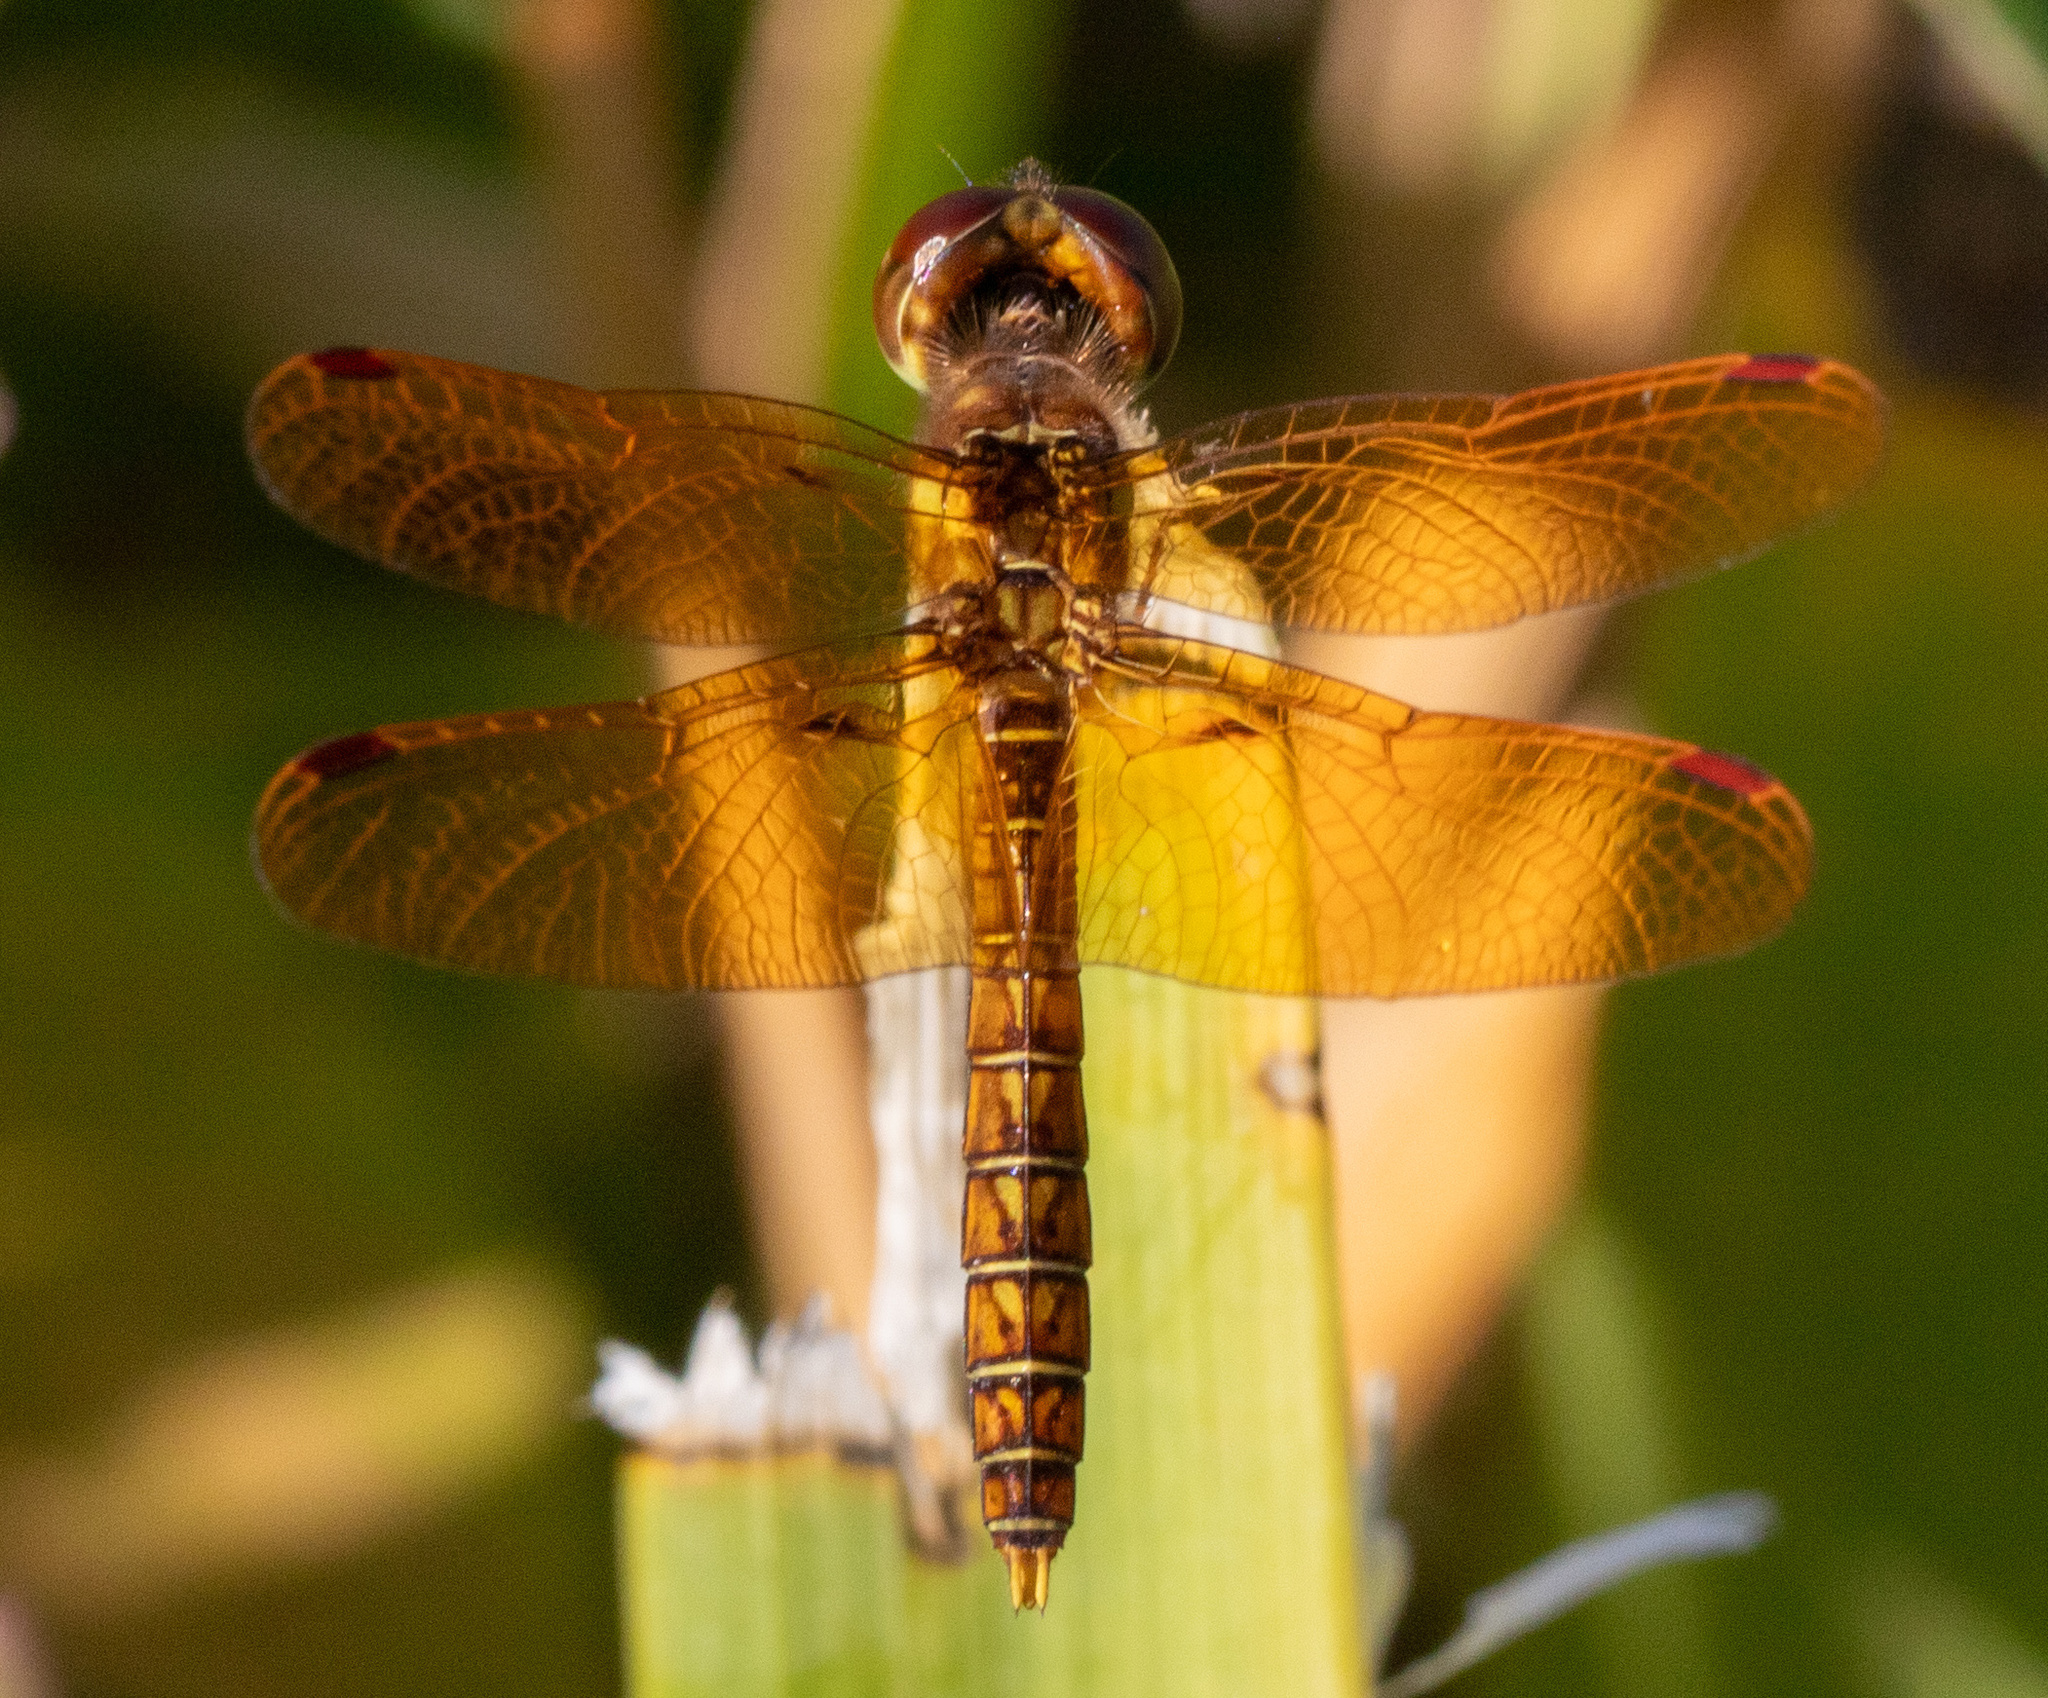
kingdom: Animalia
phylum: Arthropoda
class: Insecta
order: Odonata
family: Libellulidae
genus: Perithemis
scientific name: Perithemis tenera
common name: Eastern amberwing
